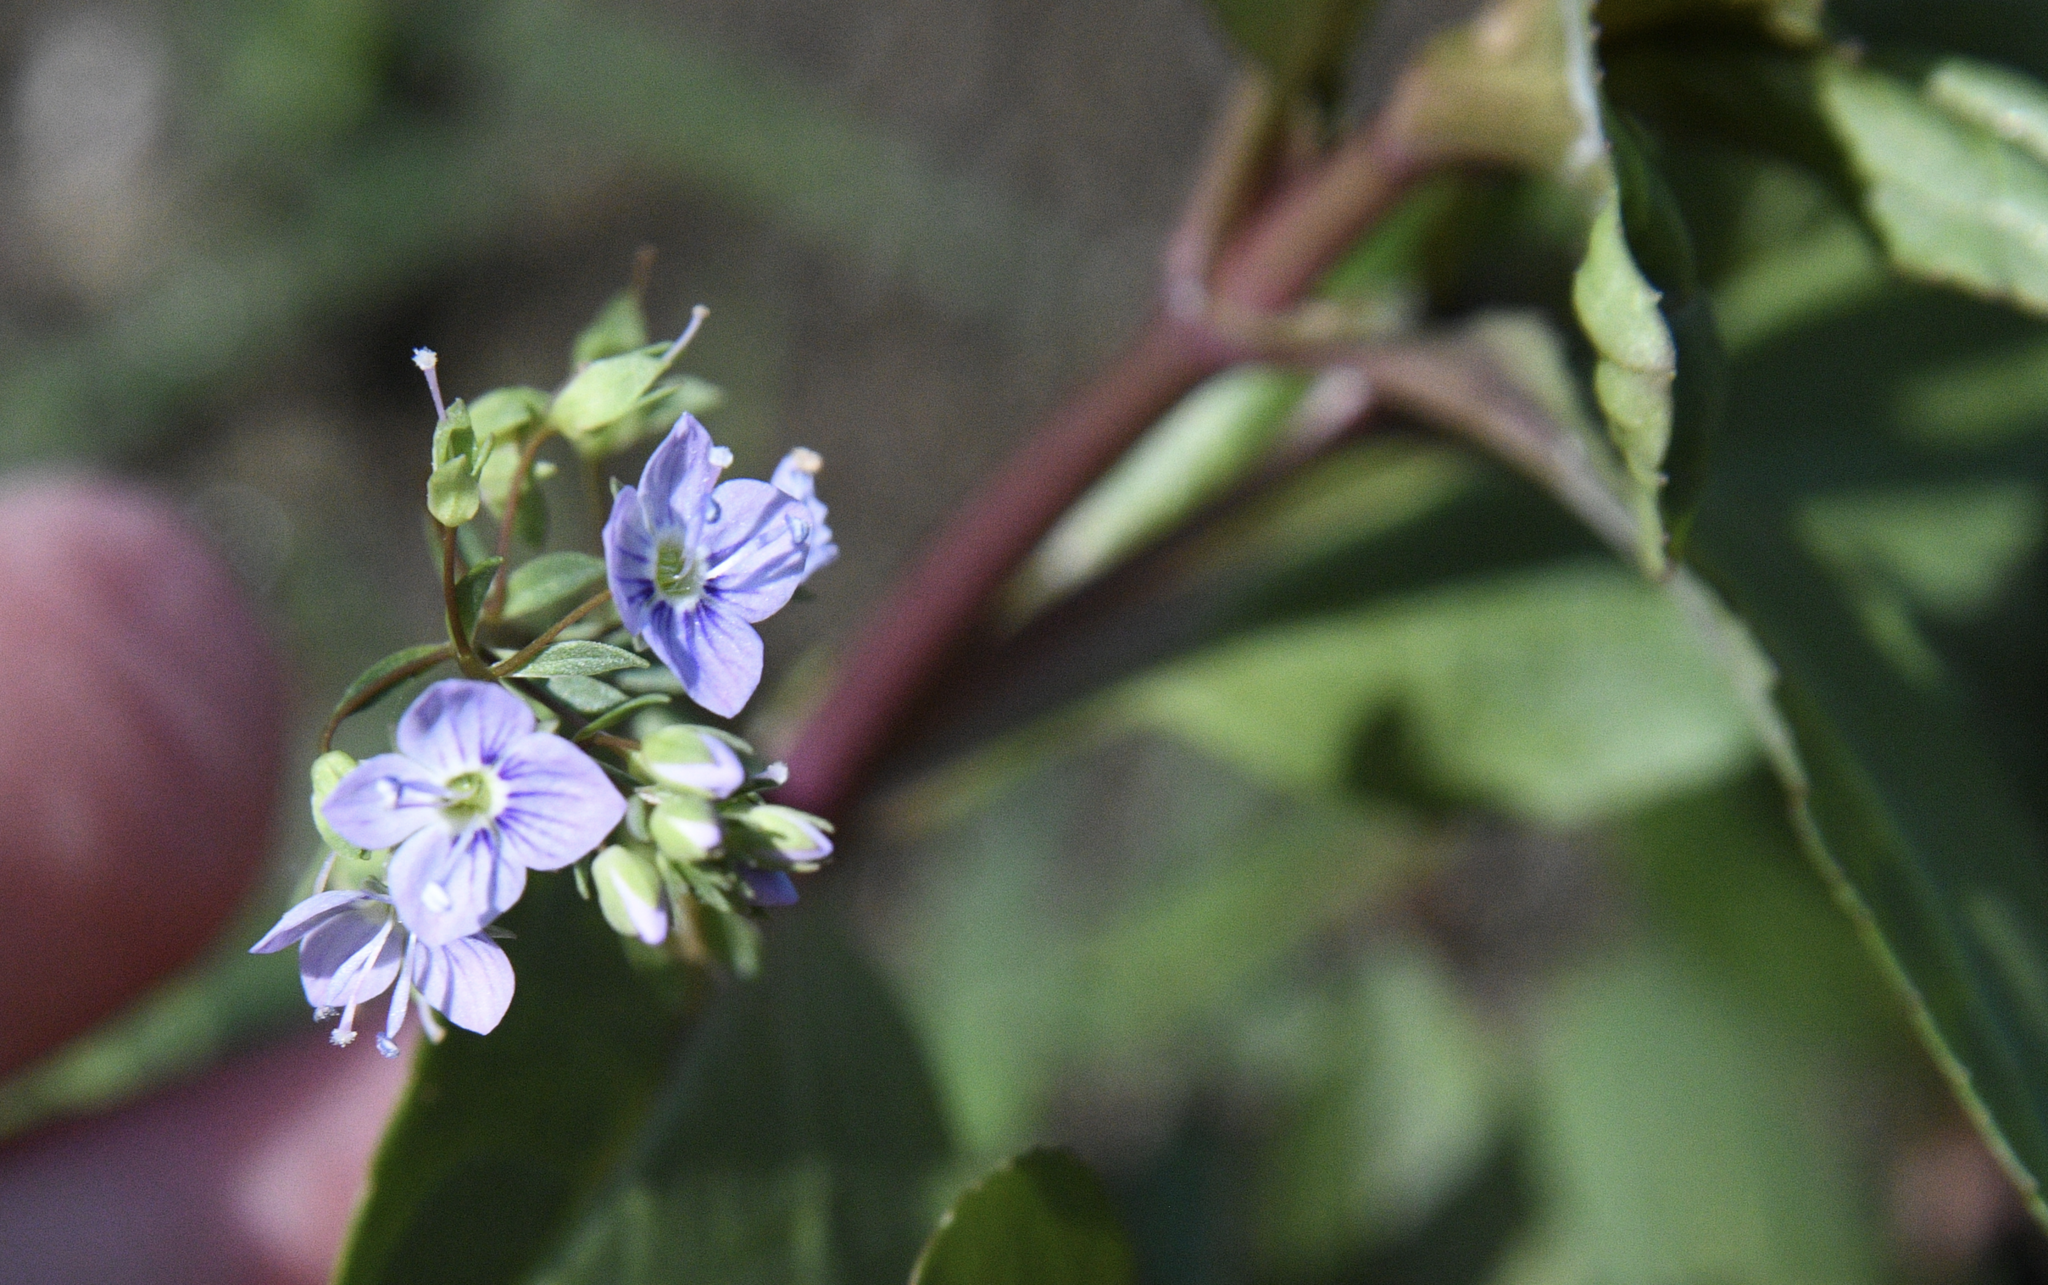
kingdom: Plantae
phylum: Tracheophyta
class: Magnoliopsida
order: Lamiales
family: Plantaginaceae
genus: Veronica
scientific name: Veronica americana
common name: American brooklime
